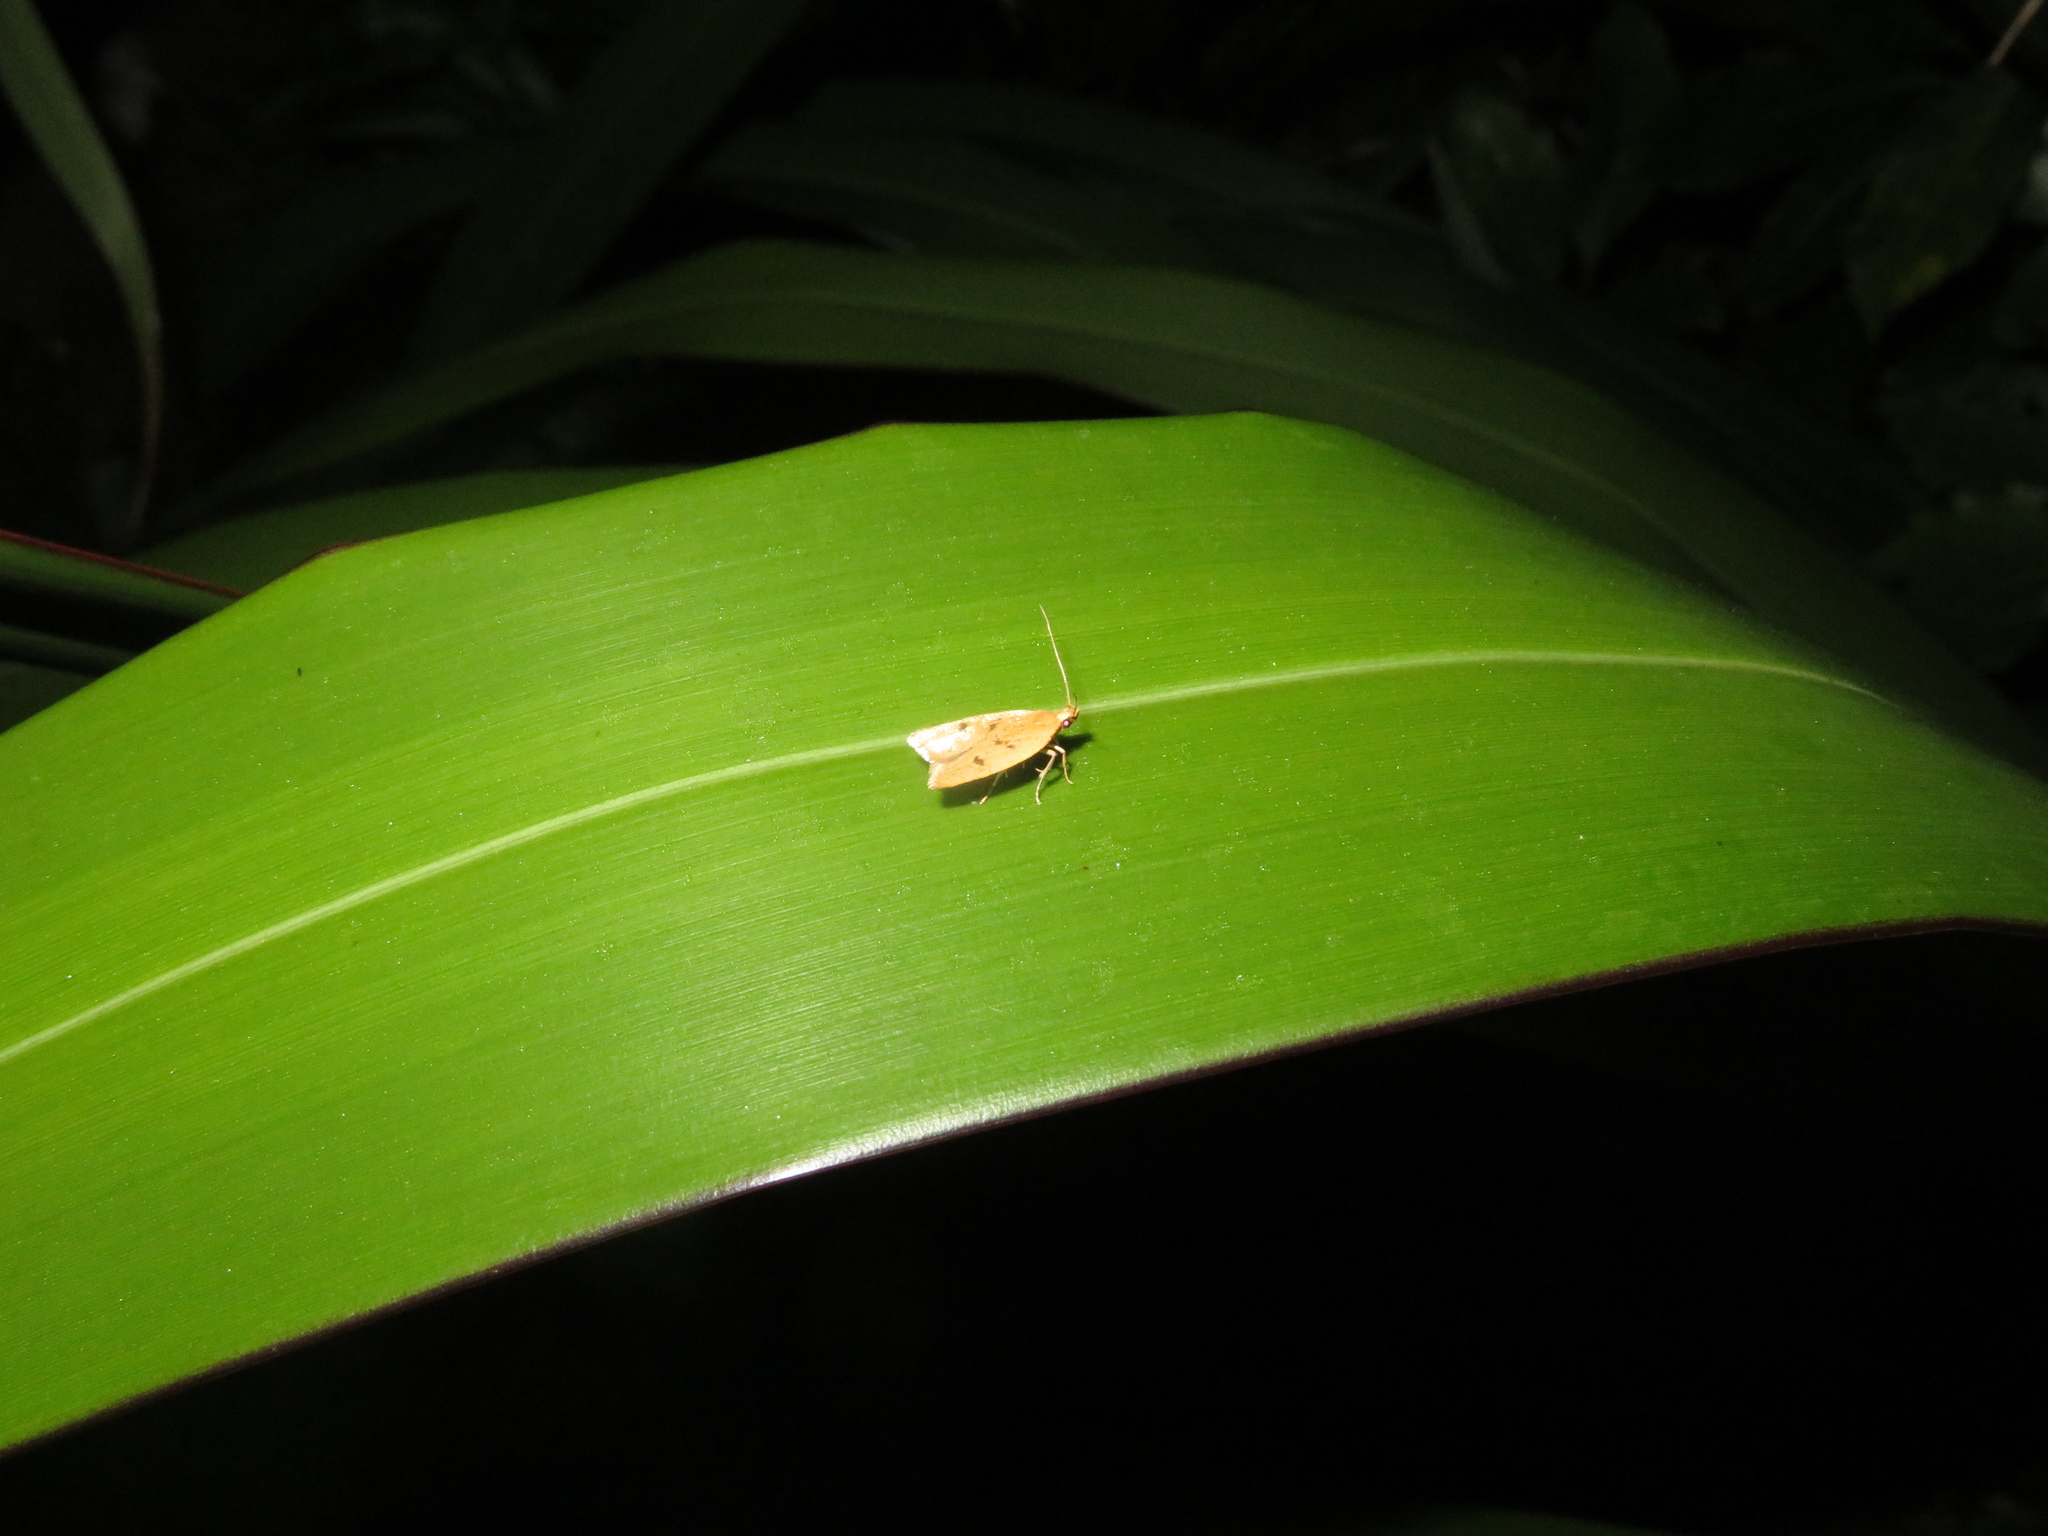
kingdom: Animalia
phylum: Arthropoda
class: Insecta
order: Lepidoptera
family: Oecophoridae
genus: Gymnobathra
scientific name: Gymnobathra sarcoxantha
